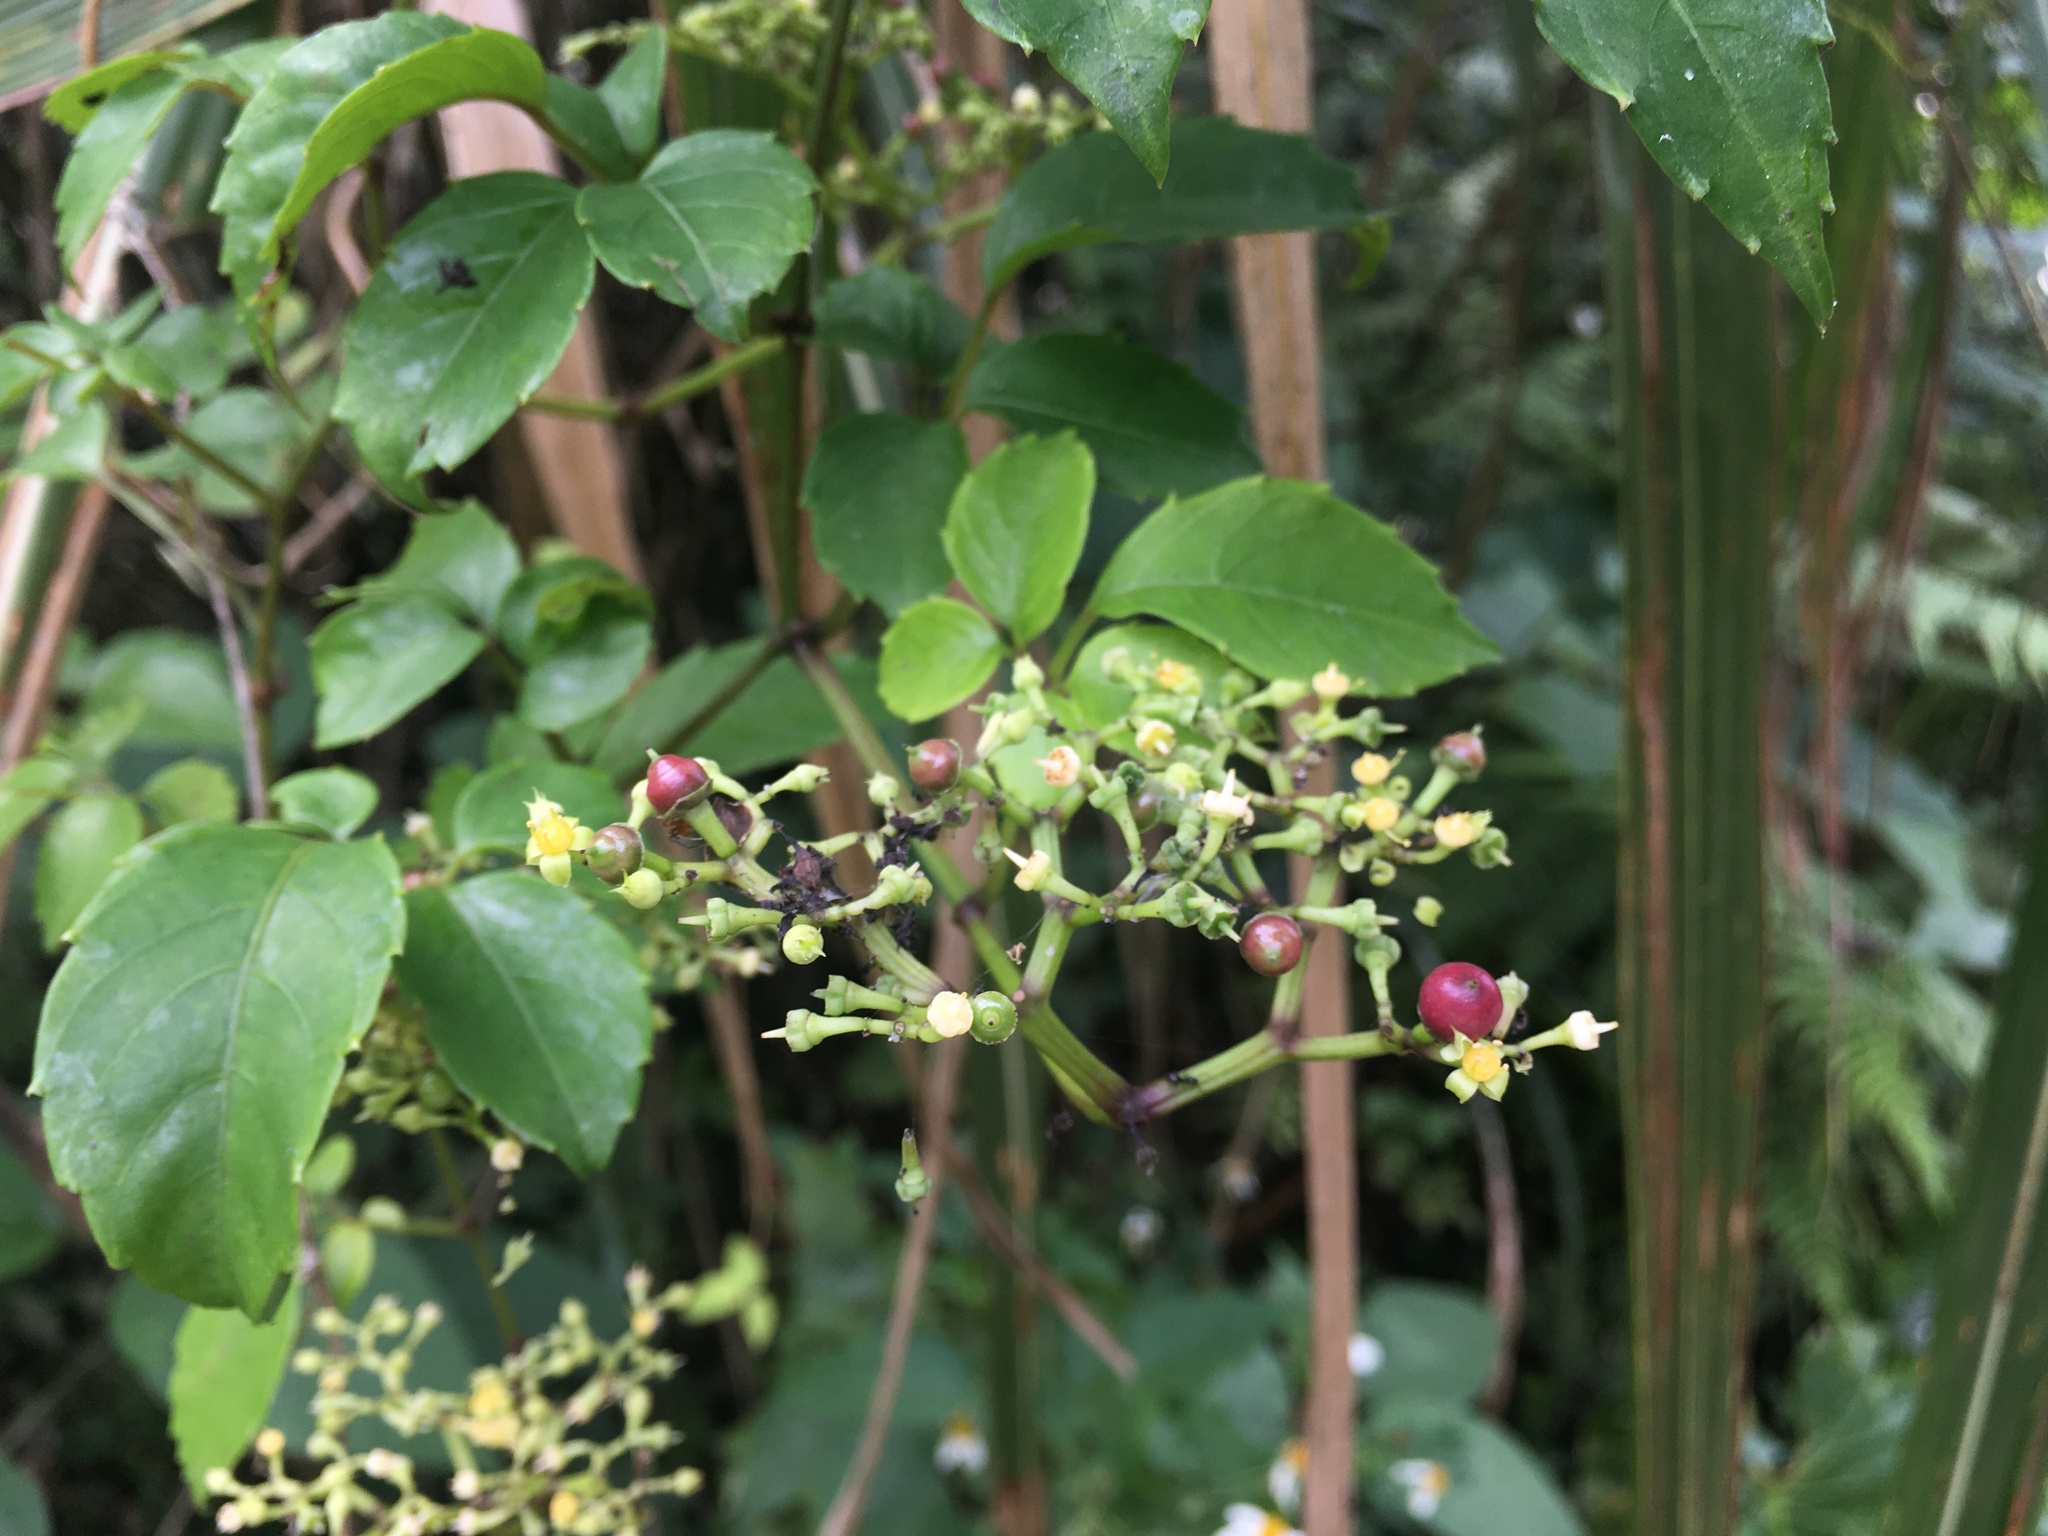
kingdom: Plantae
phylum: Tracheophyta
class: Magnoliopsida
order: Vitales
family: Vitaceae
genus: Causonis
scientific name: Causonis corniculata
